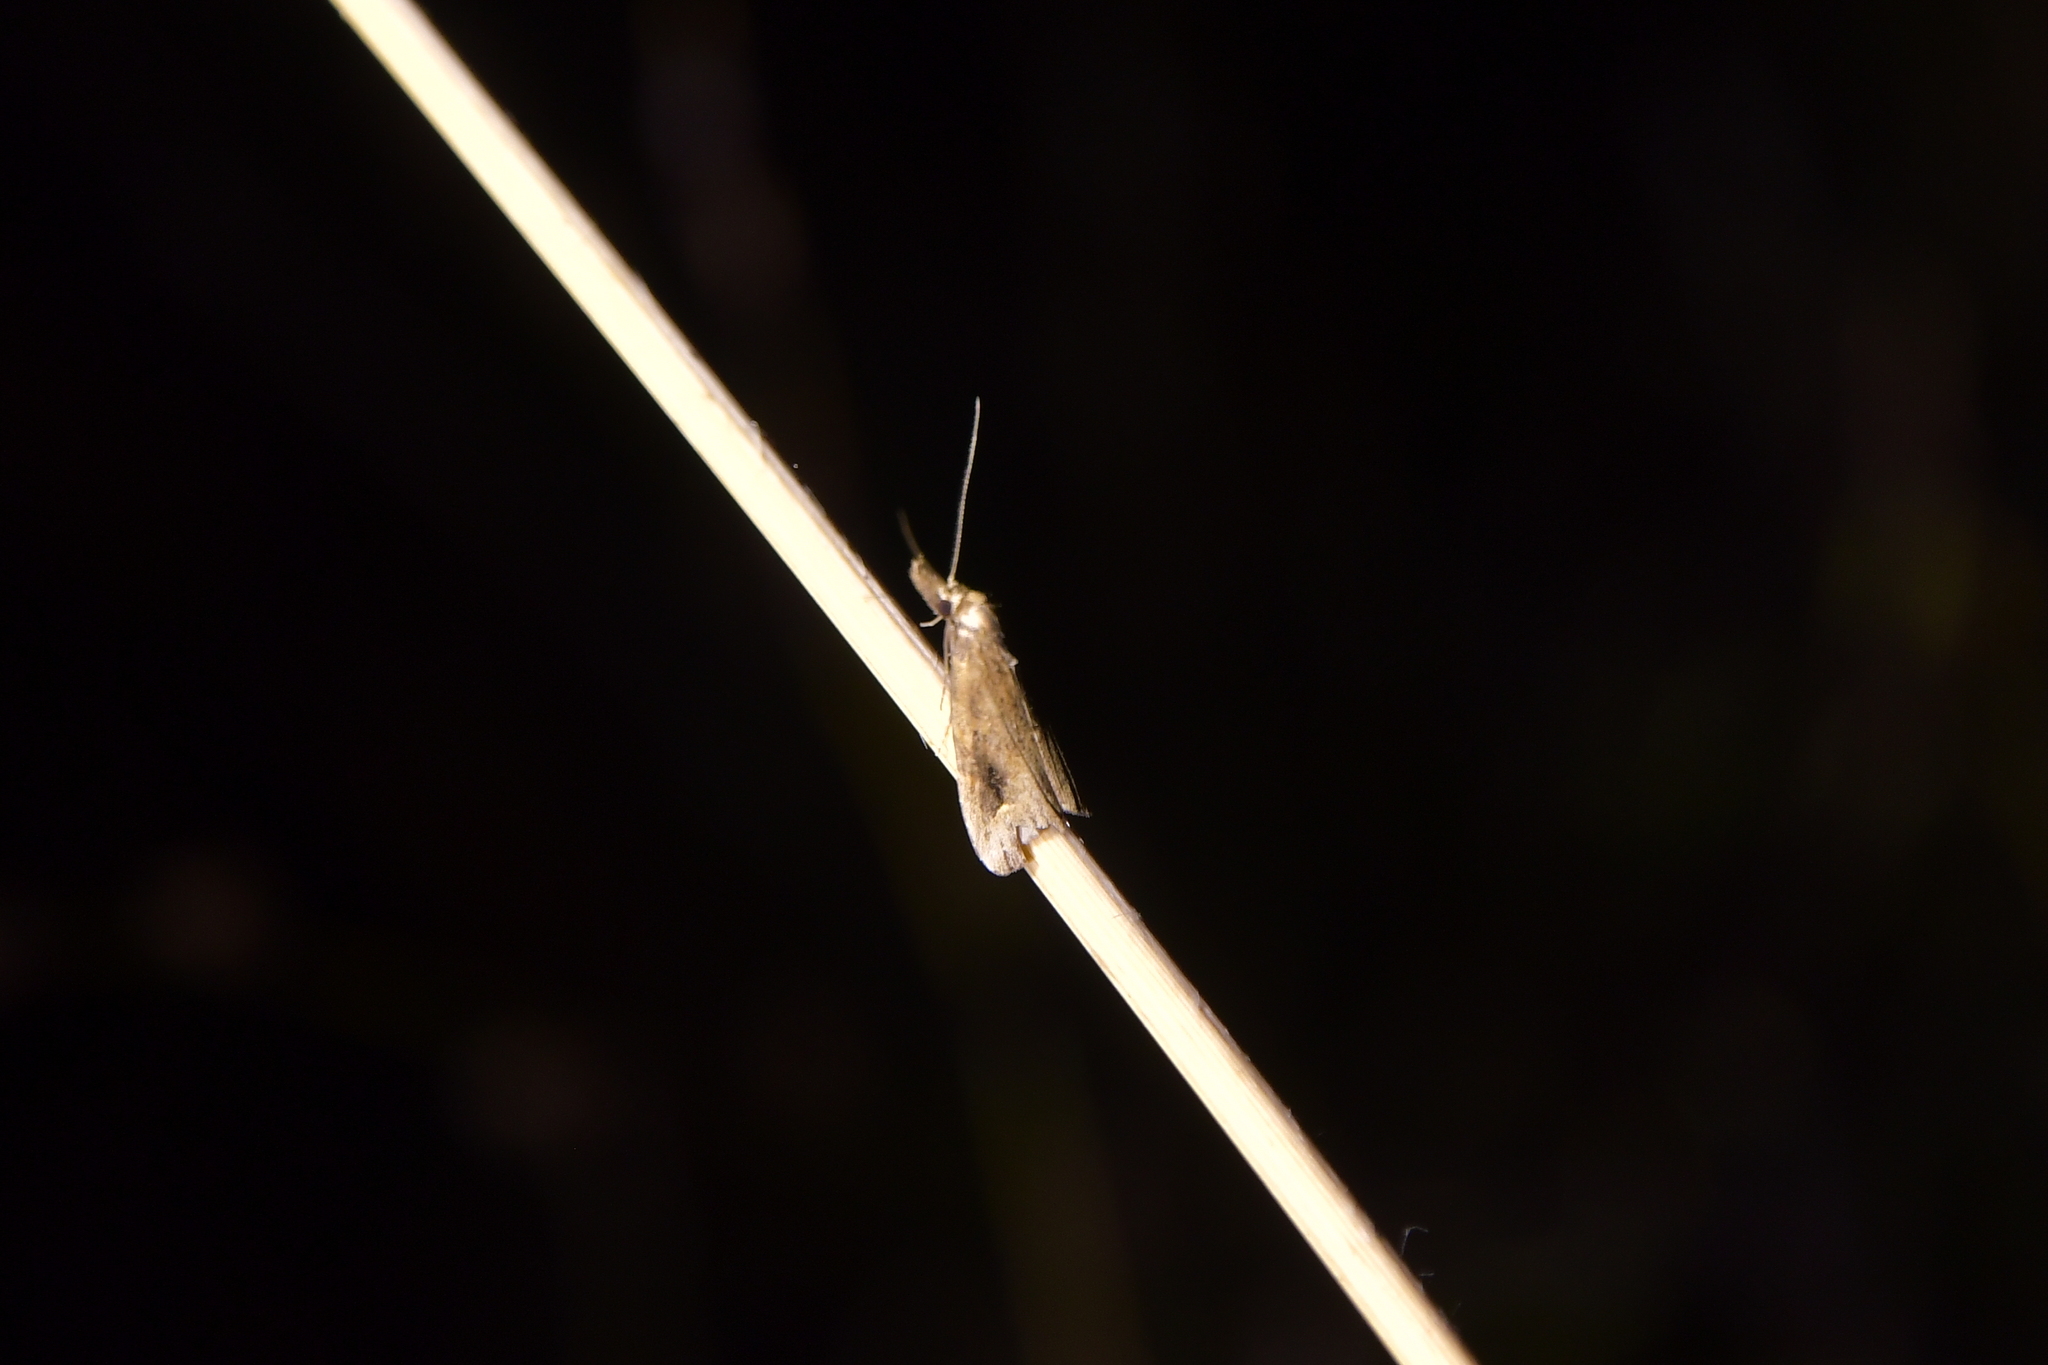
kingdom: Animalia
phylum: Arthropoda
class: Insecta
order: Lepidoptera
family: Erebidae
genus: Schrankia
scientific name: Schrankia costaestrigalis
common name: Pinion-streaked snout
